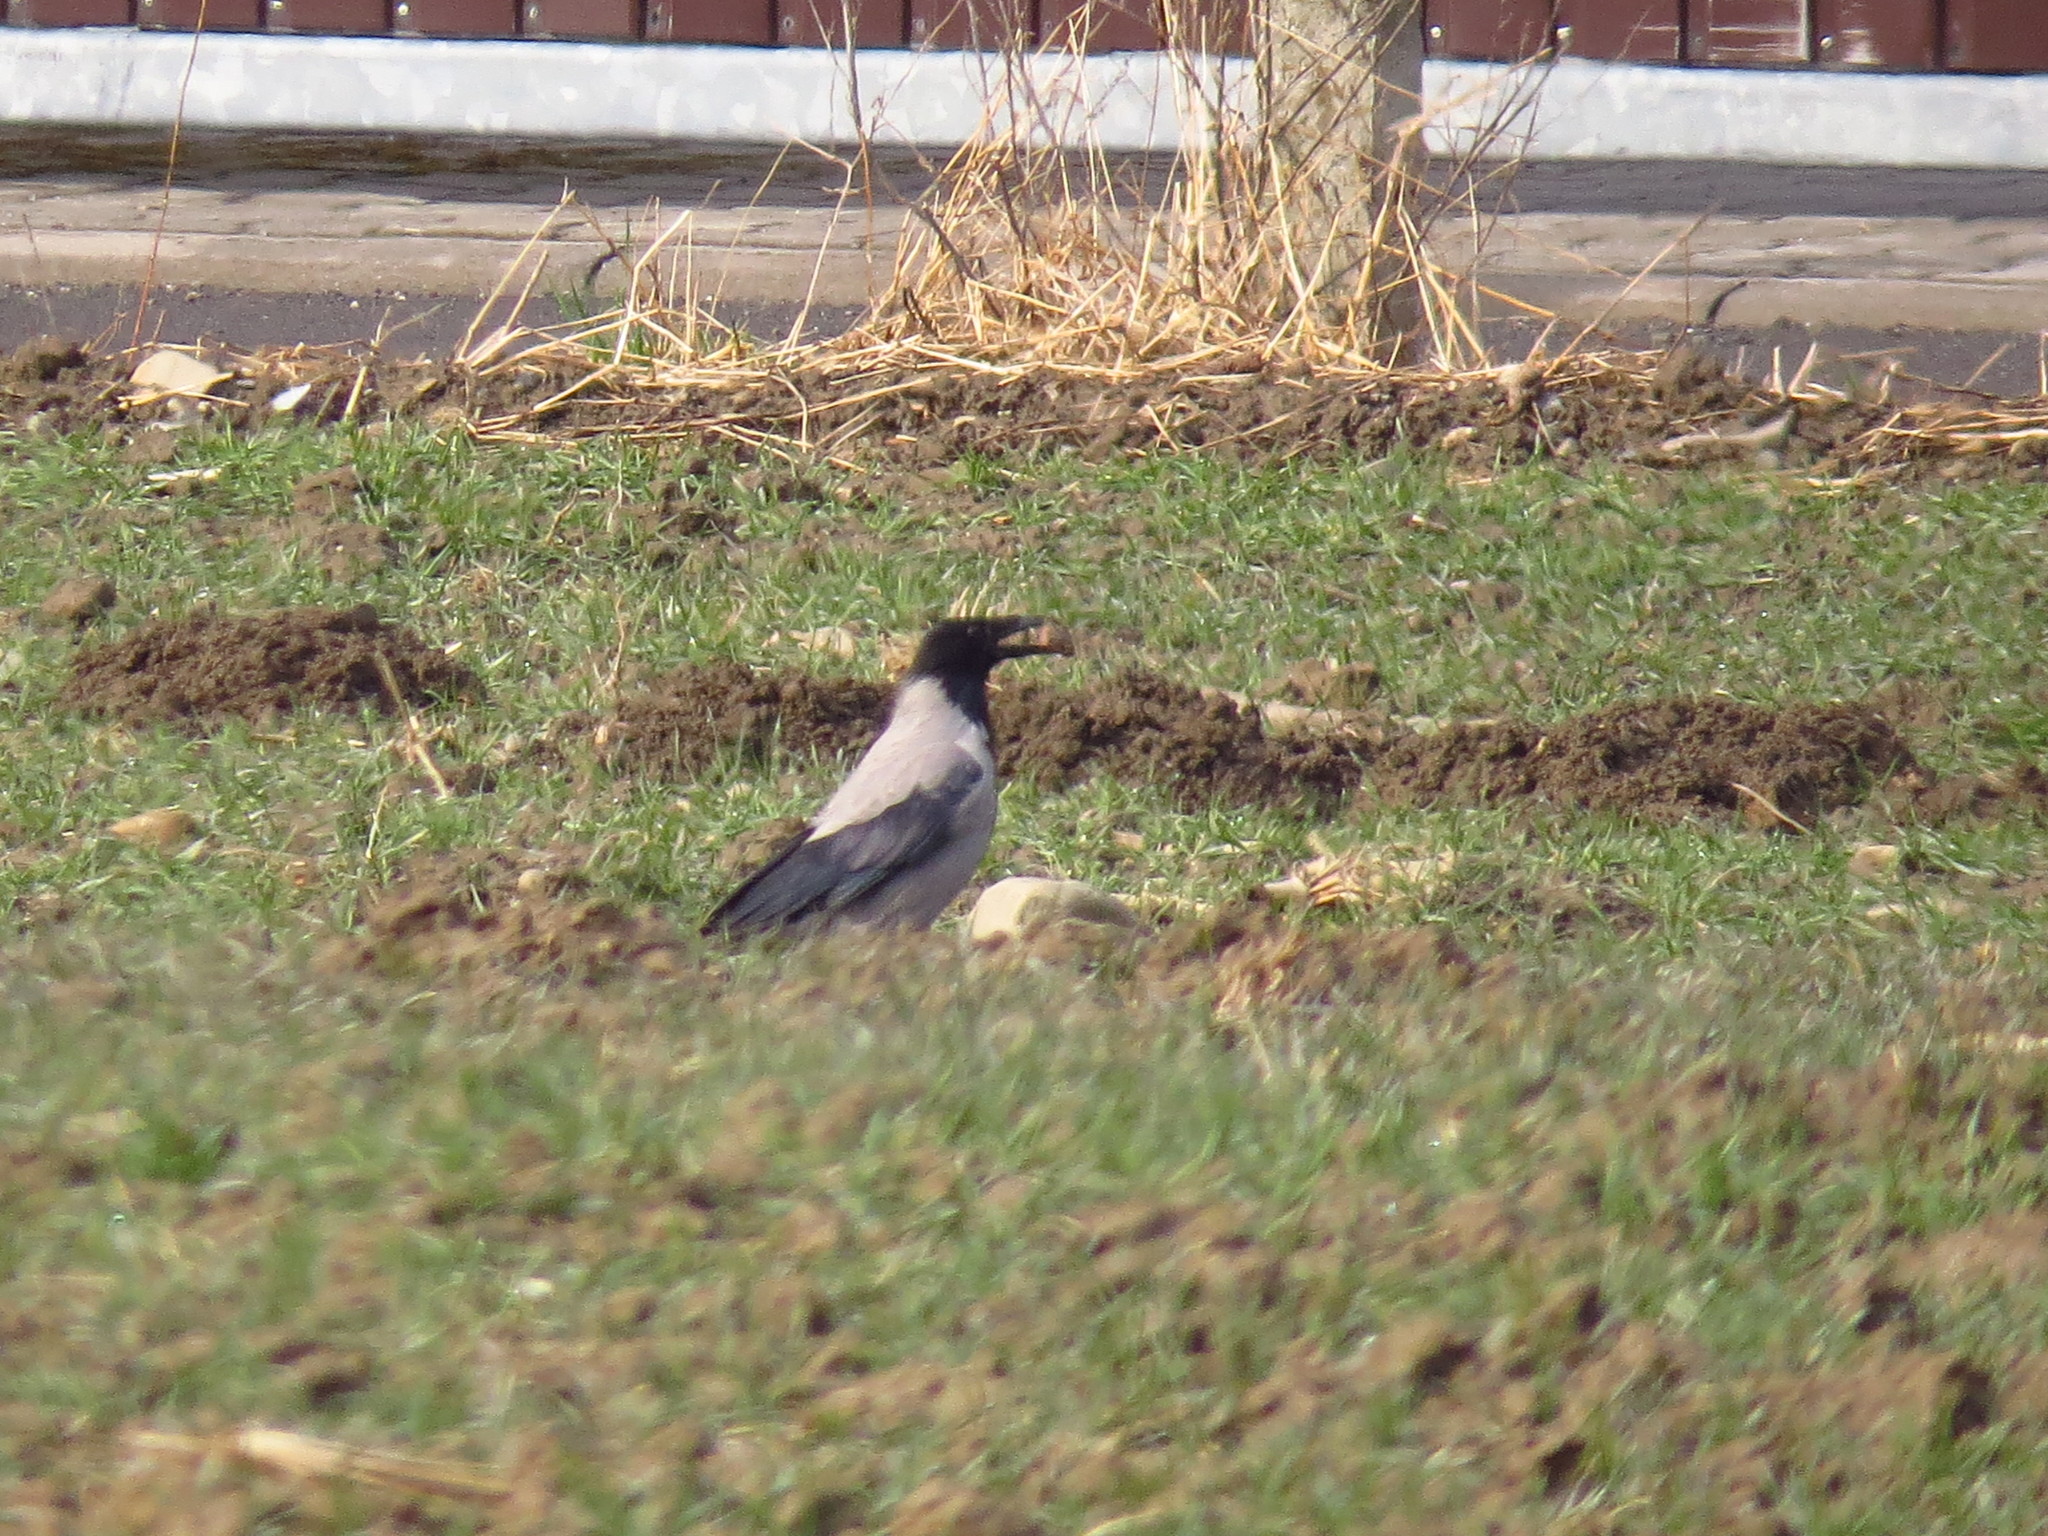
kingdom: Animalia
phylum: Chordata
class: Aves
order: Passeriformes
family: Corvidae
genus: Corvus
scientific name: Corvus cornix
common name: Hooded crow
